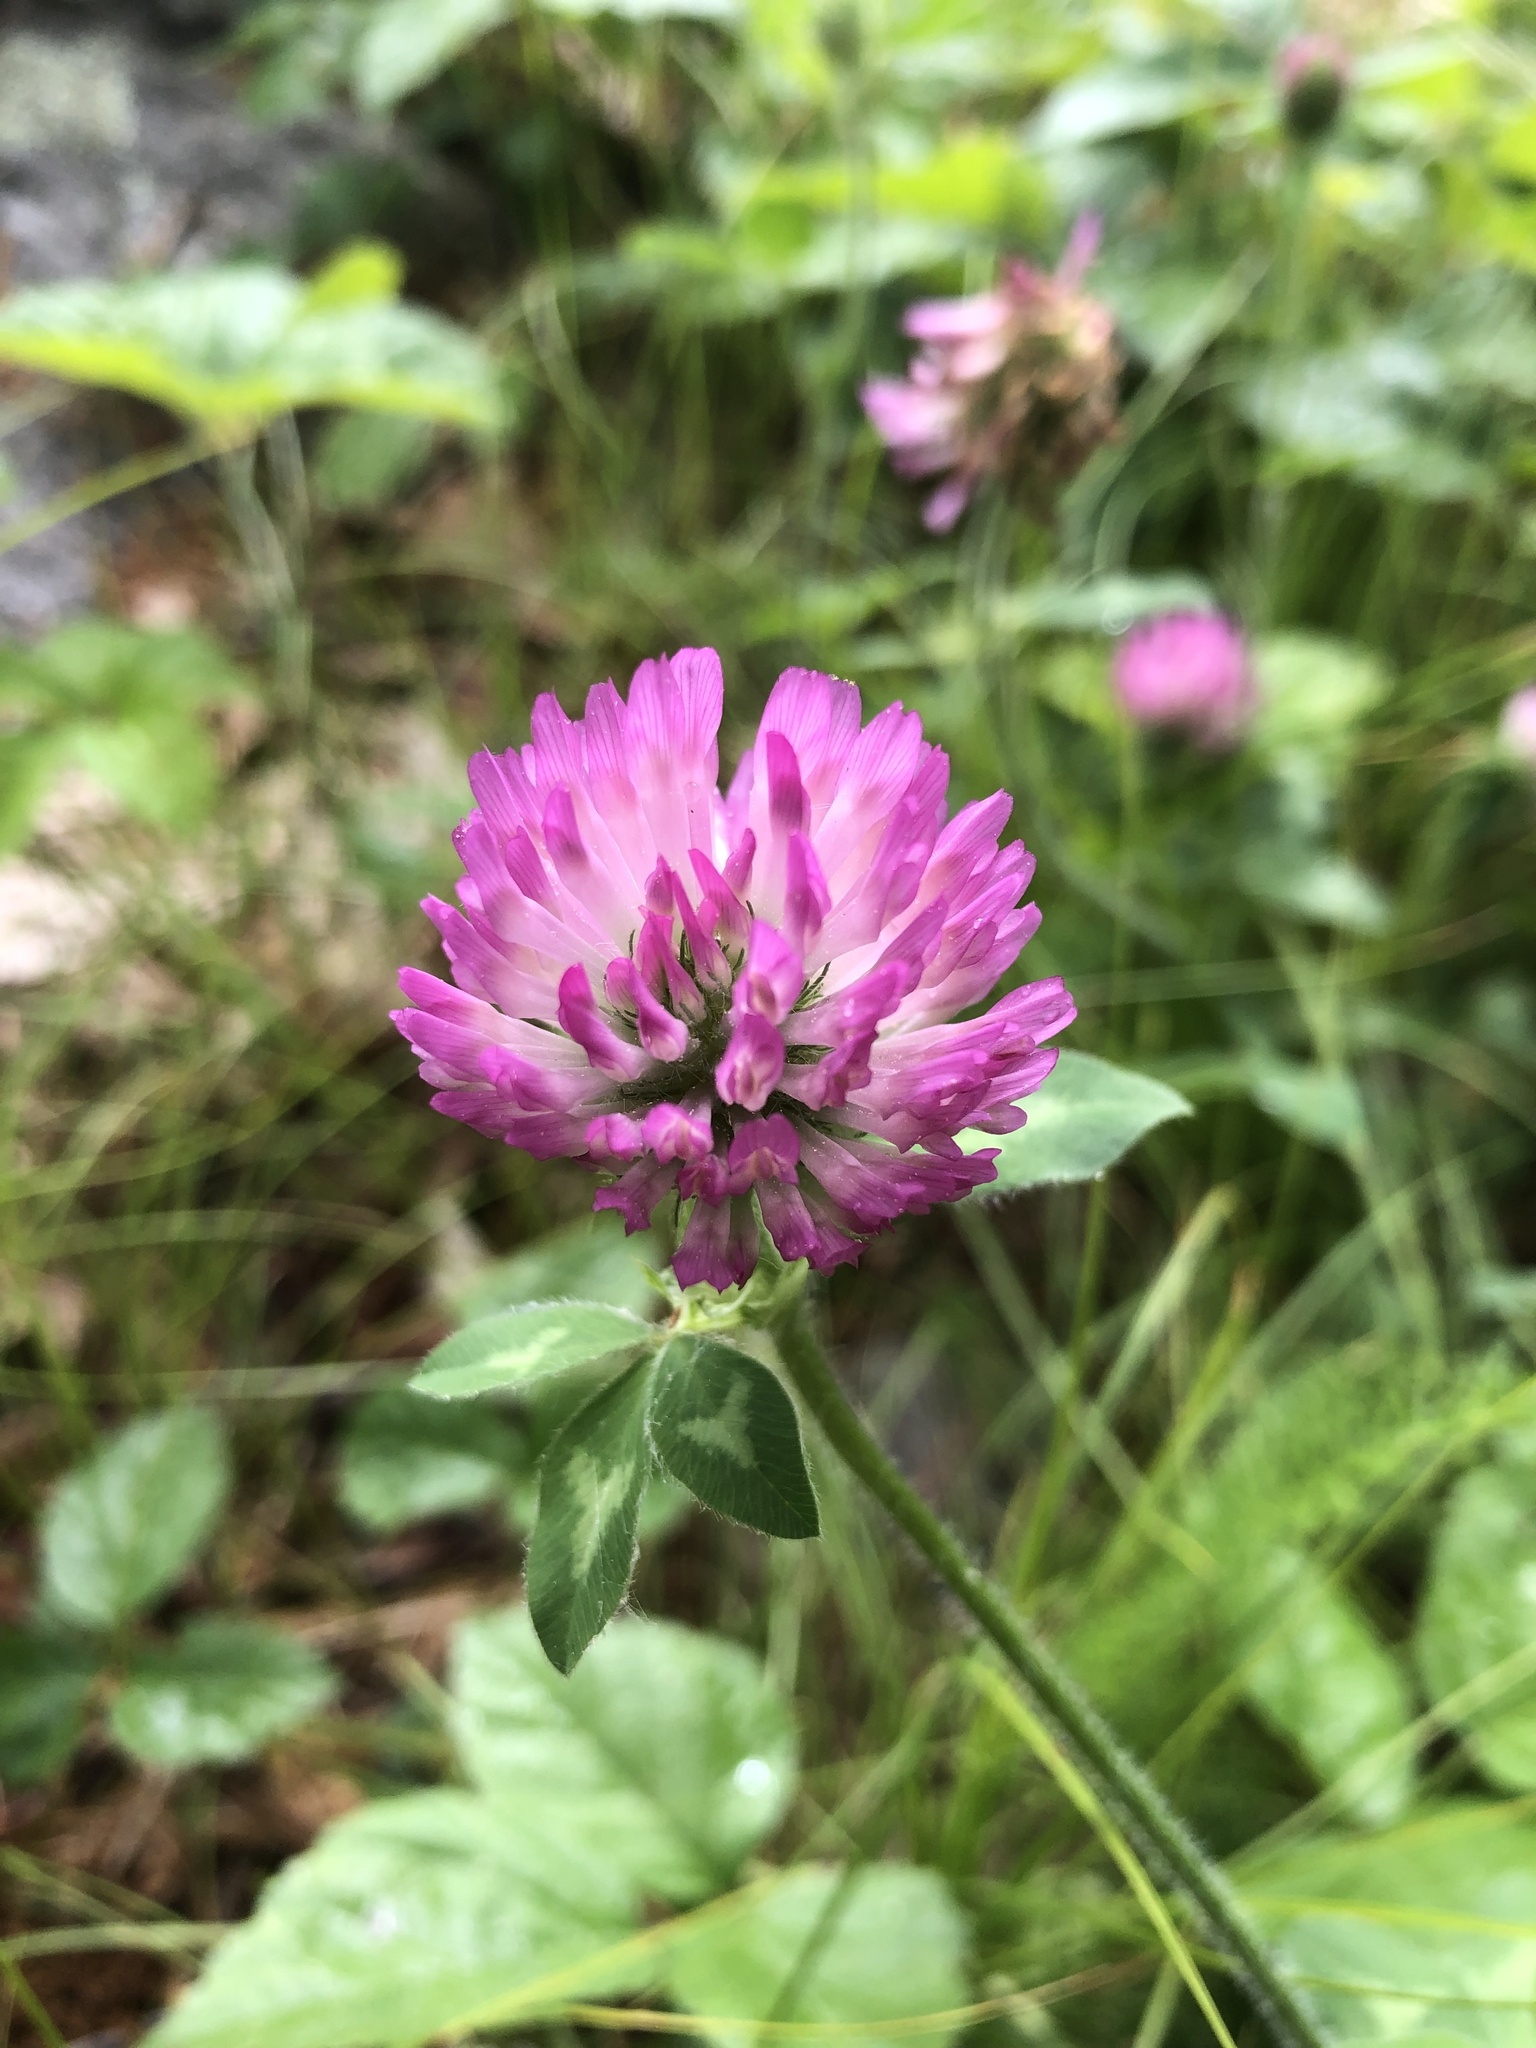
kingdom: Plantae
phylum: Tracheophyta
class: Magnoliopsida
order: Fabales
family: Fabaceae
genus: Trifolium
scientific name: Trifolium pratense
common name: Red clover
